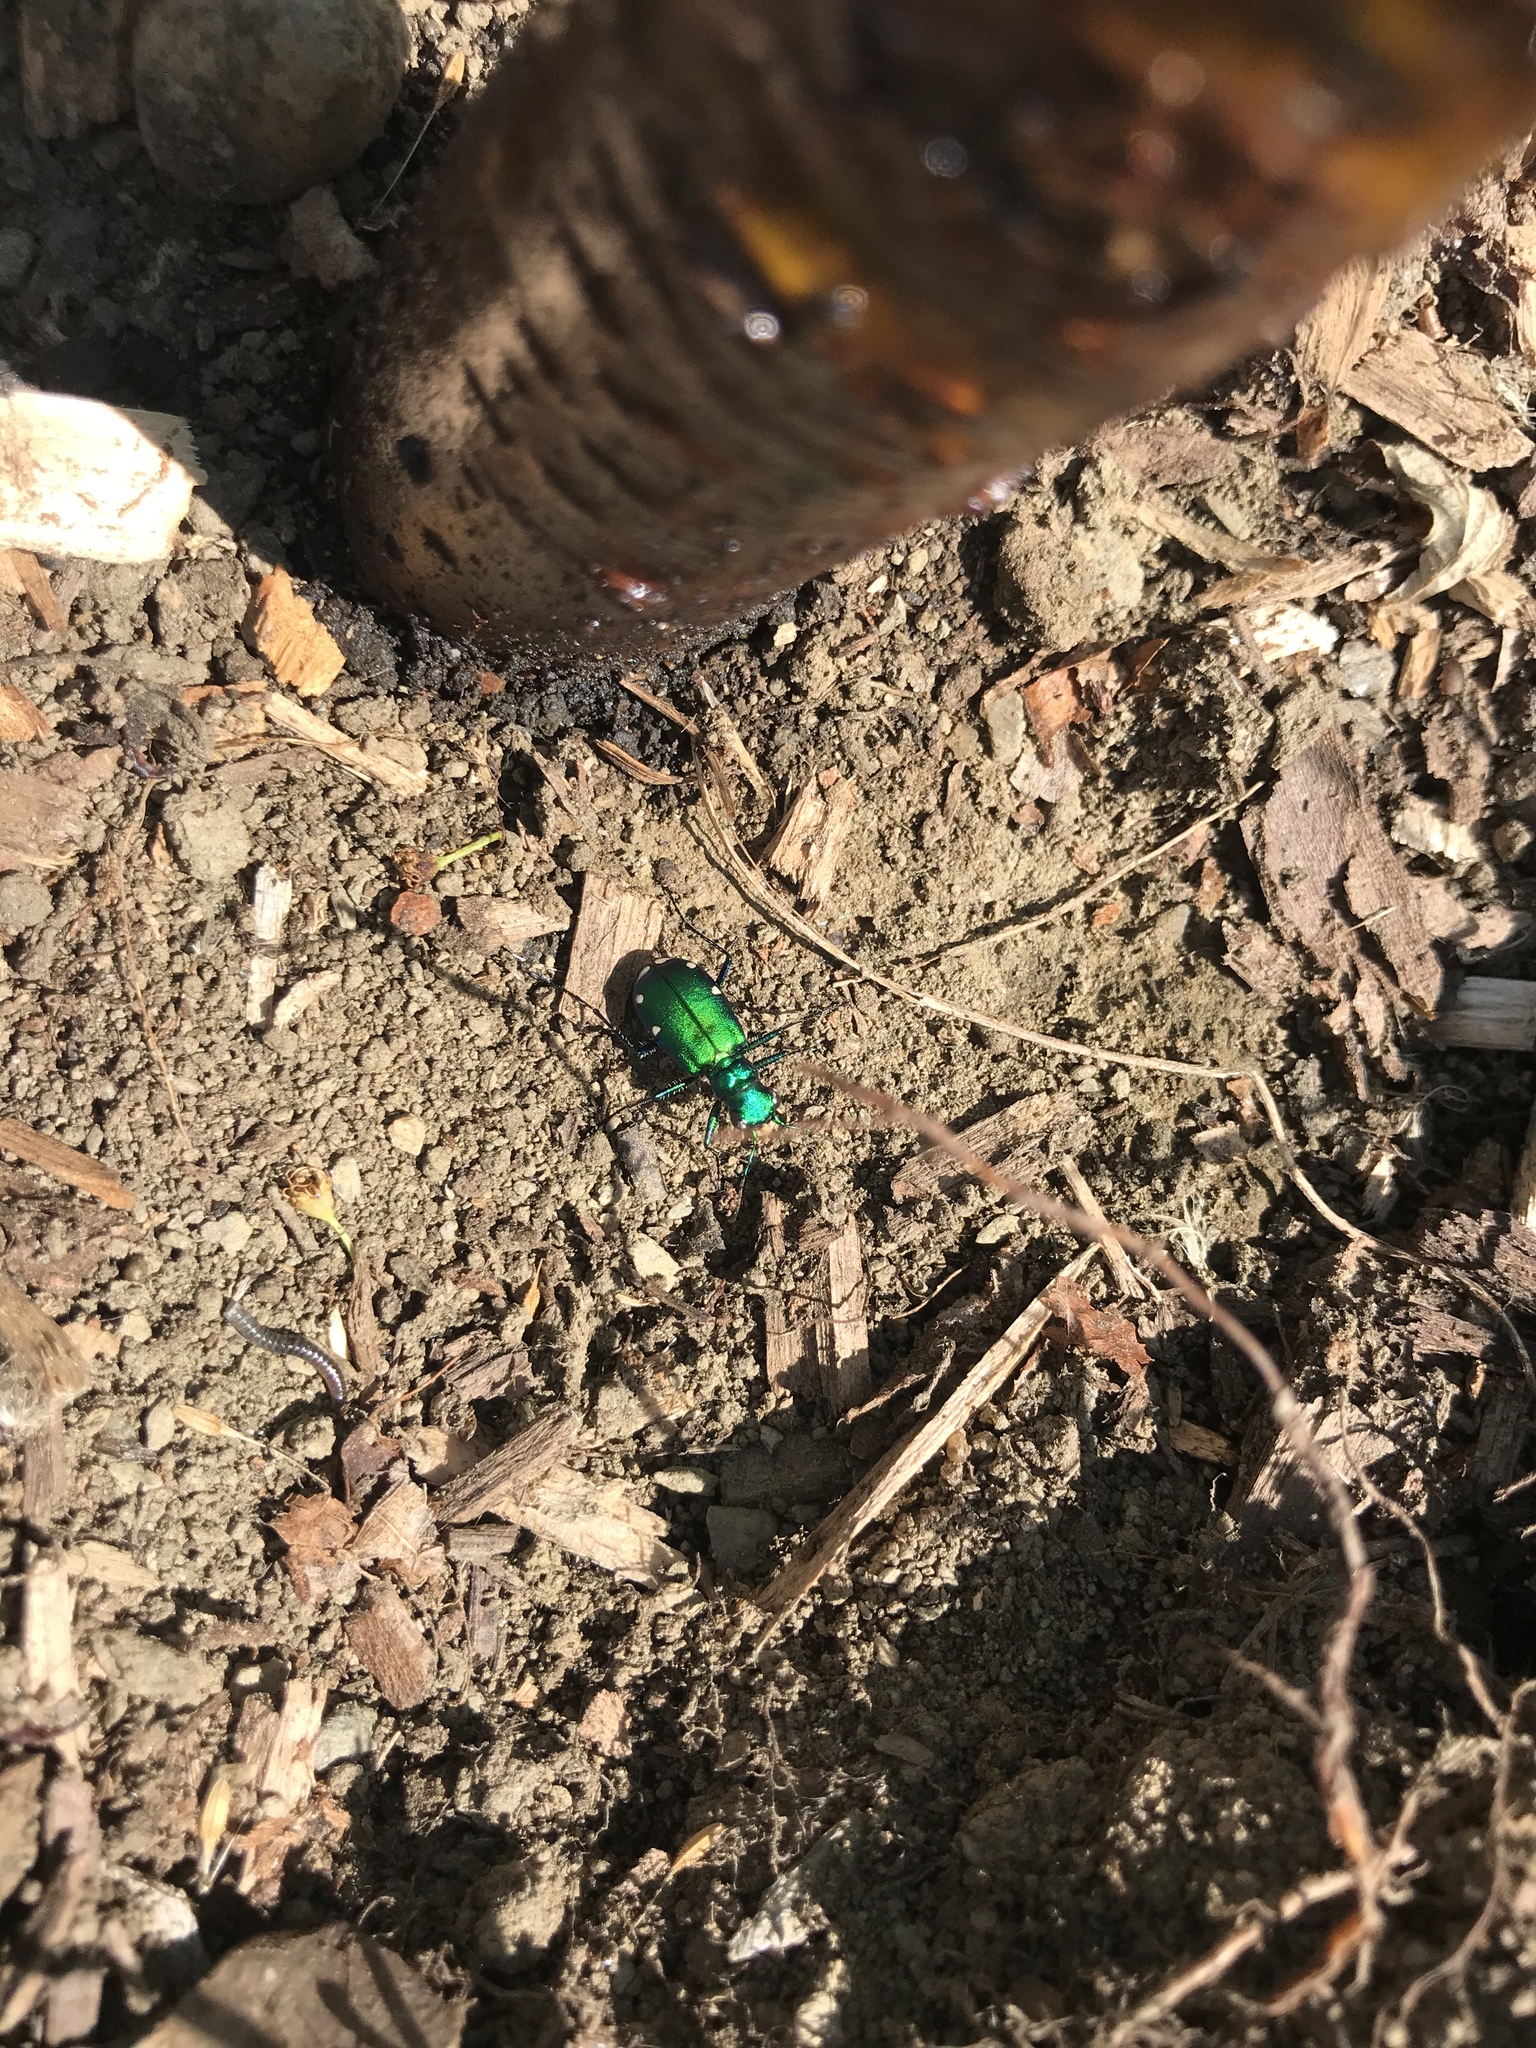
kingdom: Animalia
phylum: Arthropoda
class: Insecta
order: Coleoptera
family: Carabidae
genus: Cicindela
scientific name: Cicindela sexguttata
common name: Six-spotted tiger beetle
